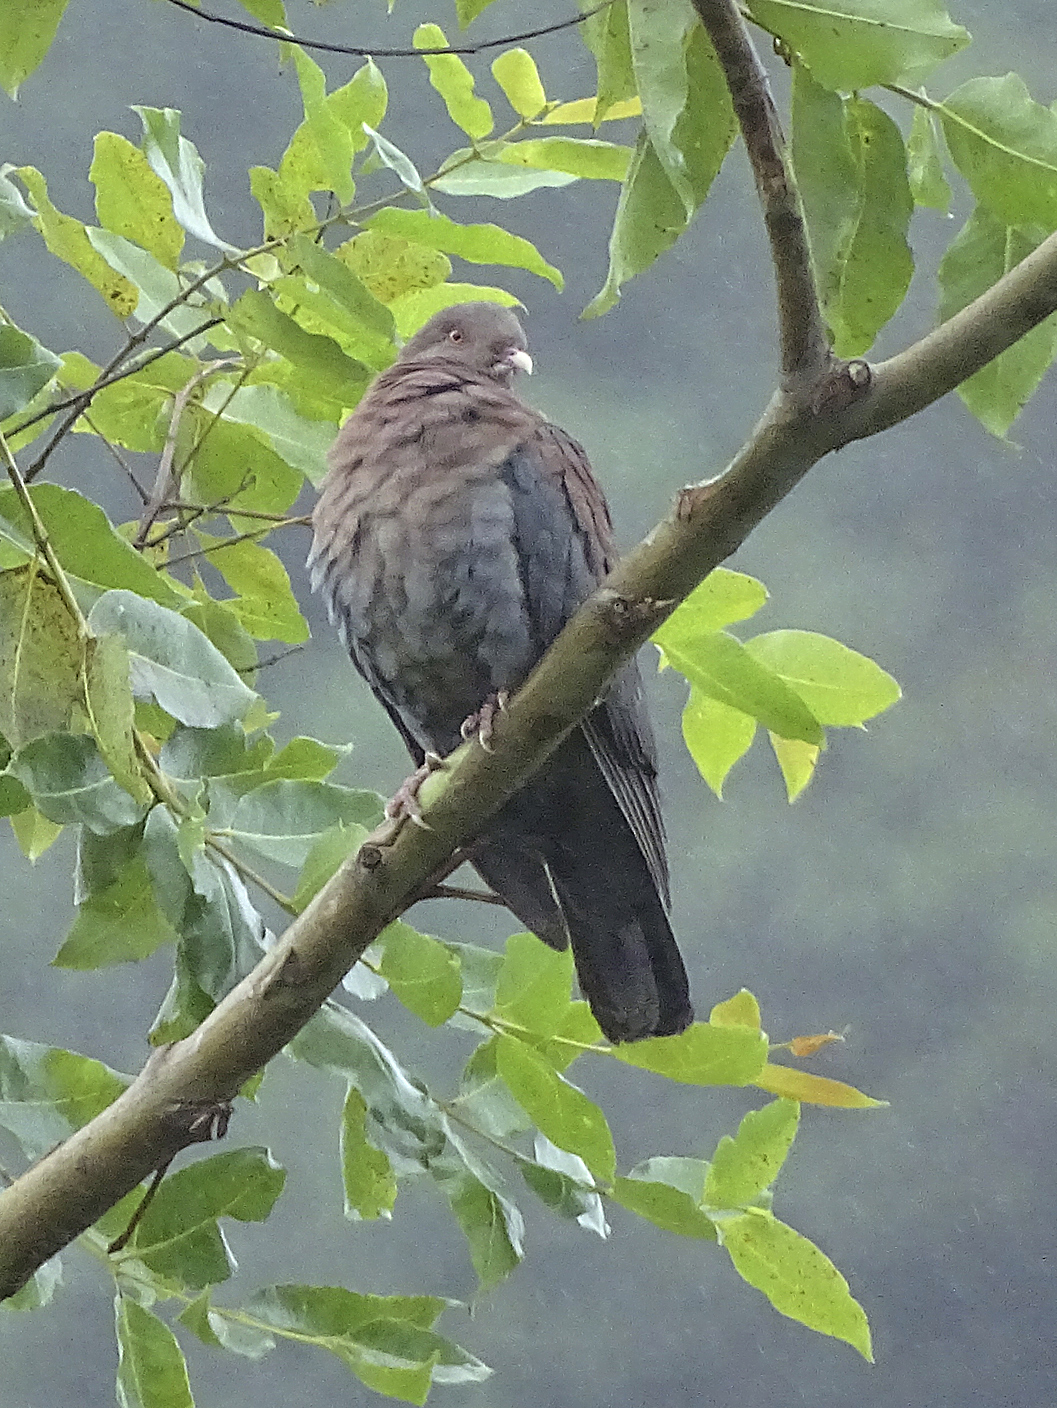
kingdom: Animalia
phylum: Chordata
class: Aves
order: Columbiformes
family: Columbidae
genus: Patagioenas
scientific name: Patagioenas flavirostris
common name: Red-billed pigeon
